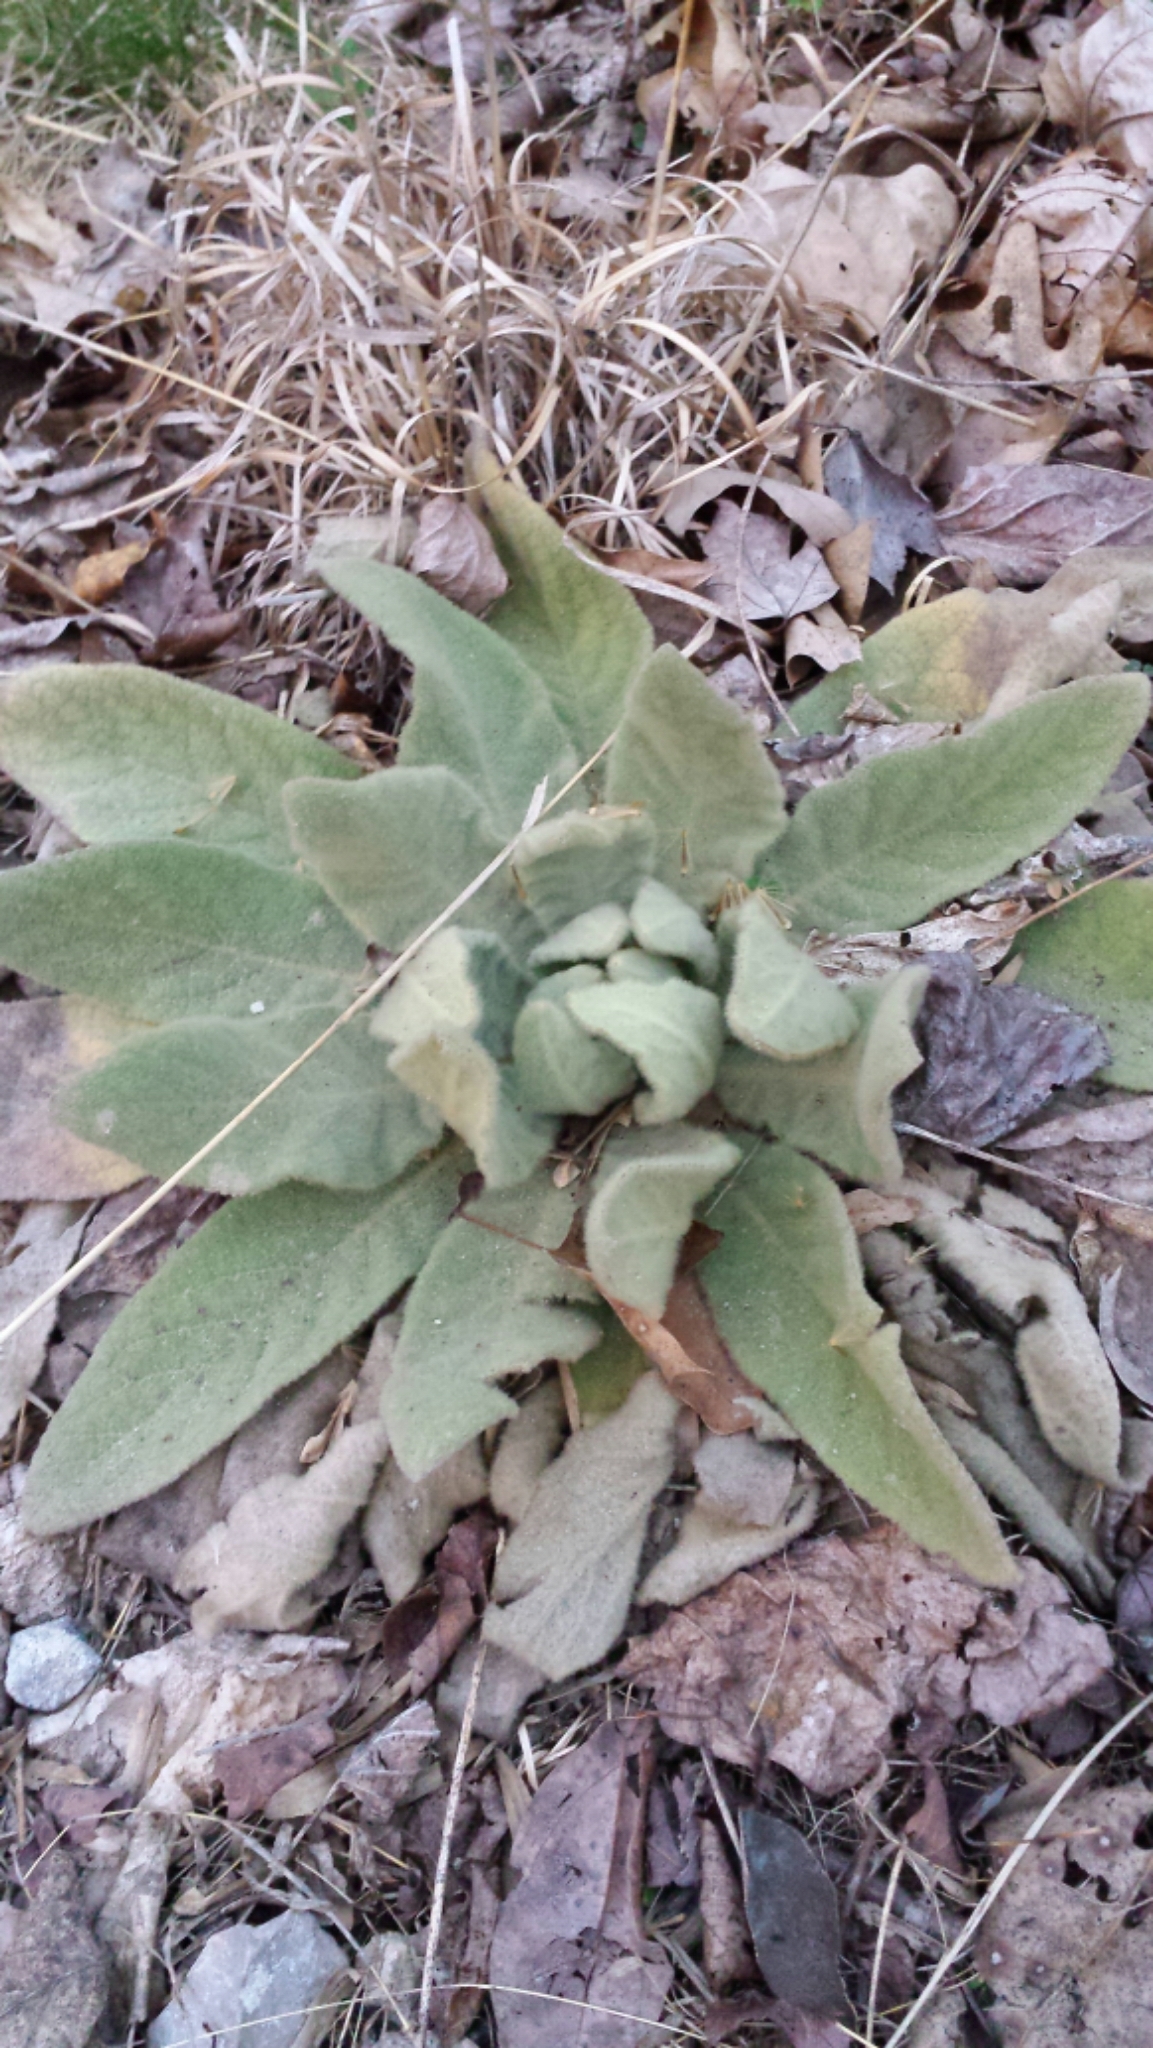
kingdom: Plantae
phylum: Tracheophyta
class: Magnoliopsida
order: Lamiales
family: Scrophulariaceae
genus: Verbascum
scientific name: Verbascum thapsus
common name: Common mullein
